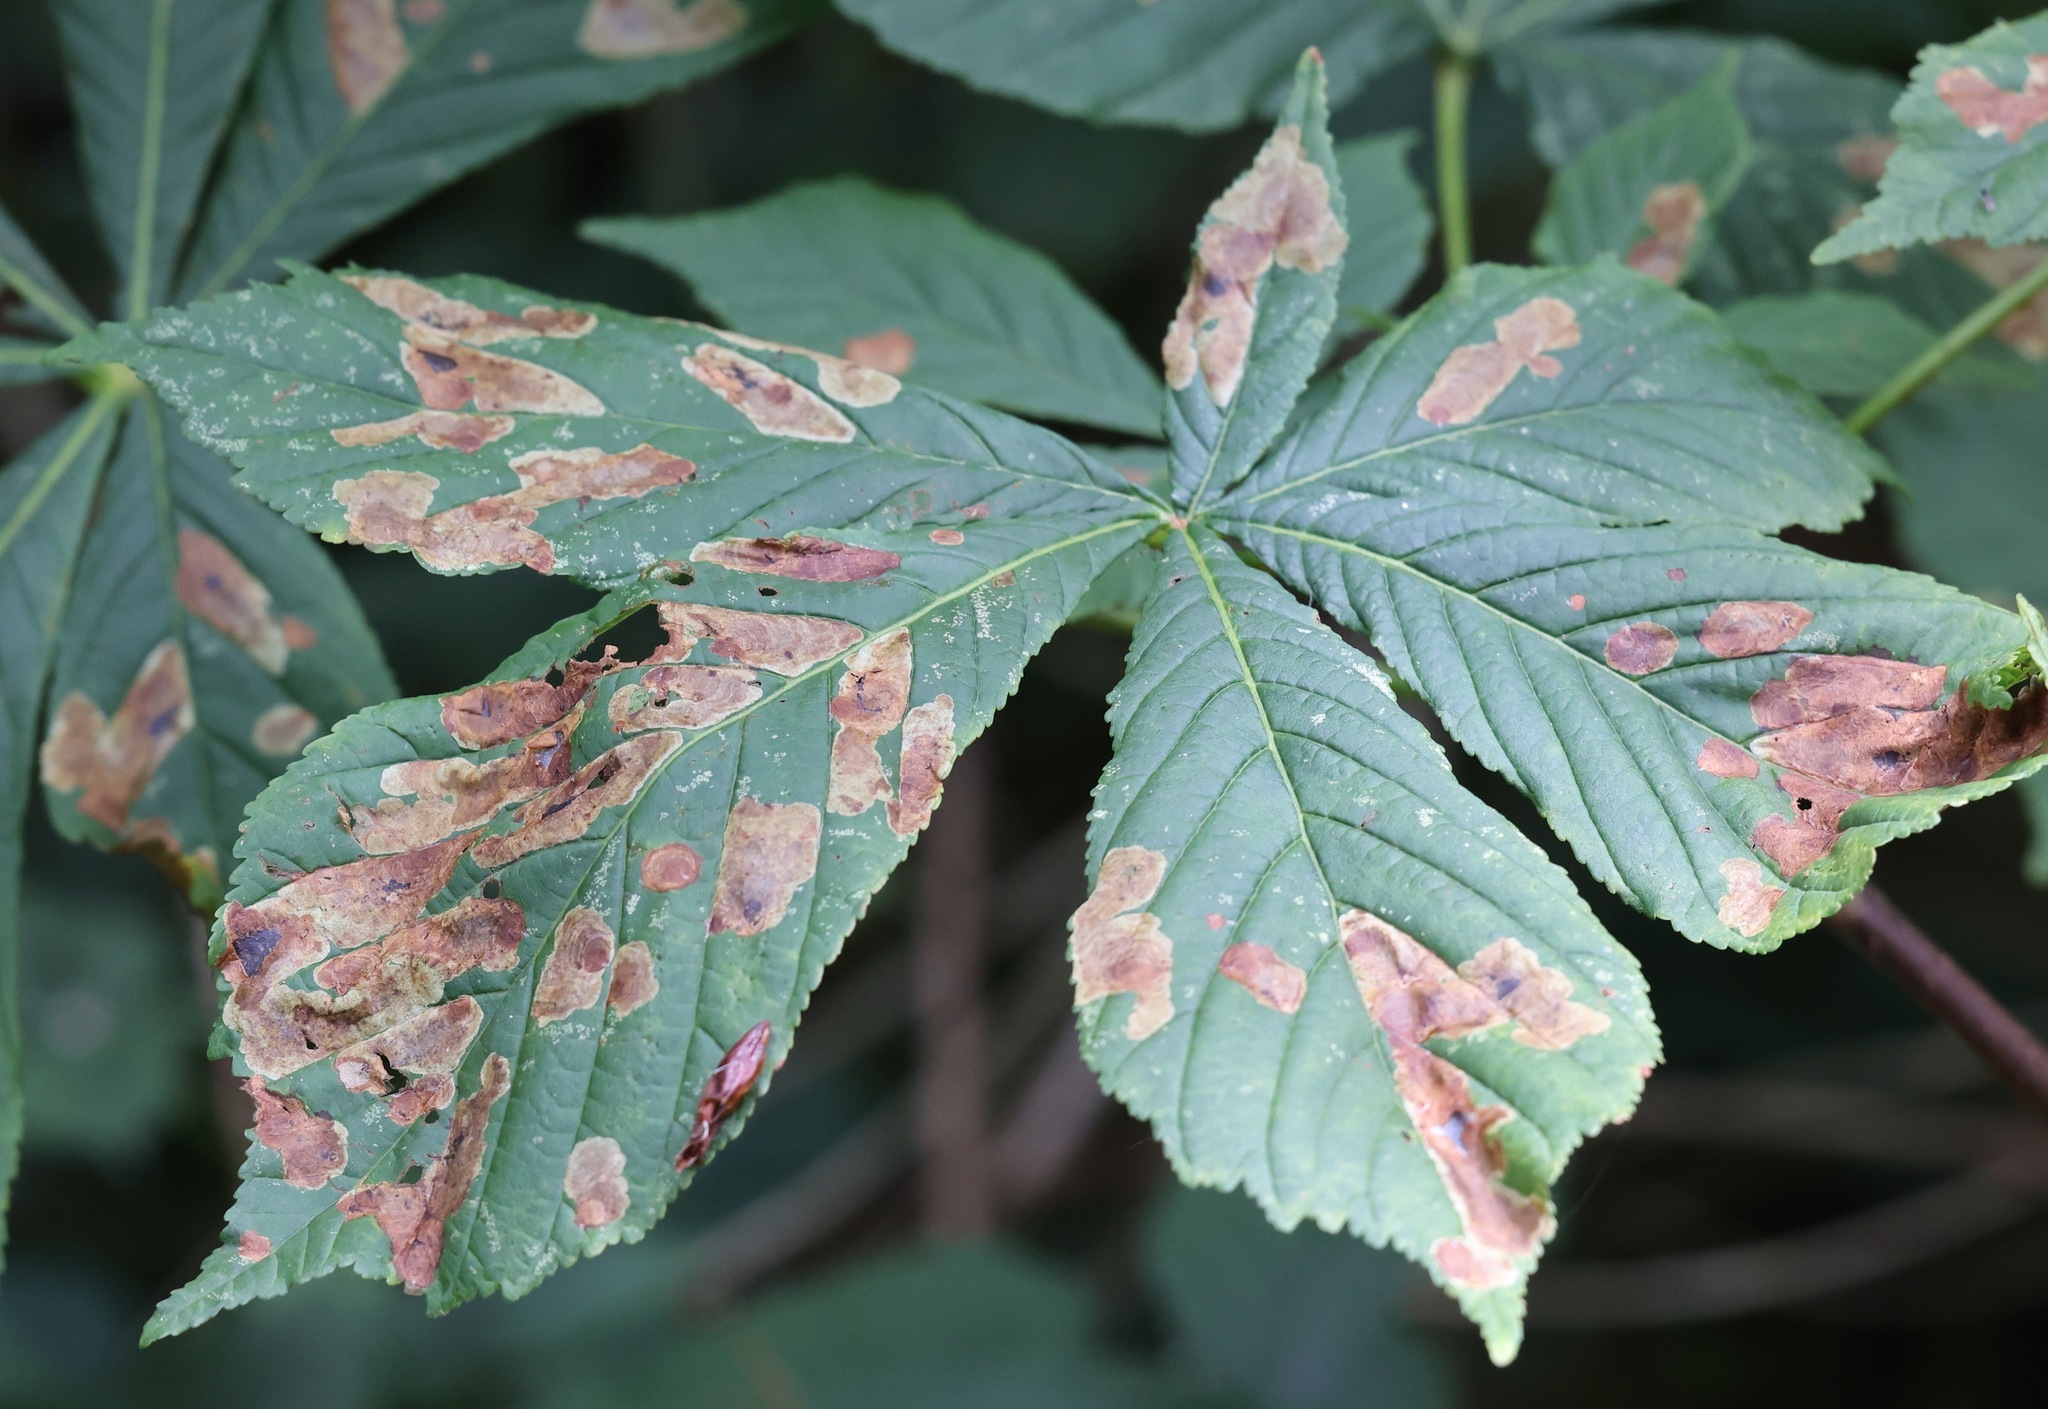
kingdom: Animalia
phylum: Arthropoda
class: Insecta
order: Lepidoptera
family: Gracillariidae
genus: Cameraria
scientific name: Cameraria ohridella
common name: Horse-chestnut leaf-miner
